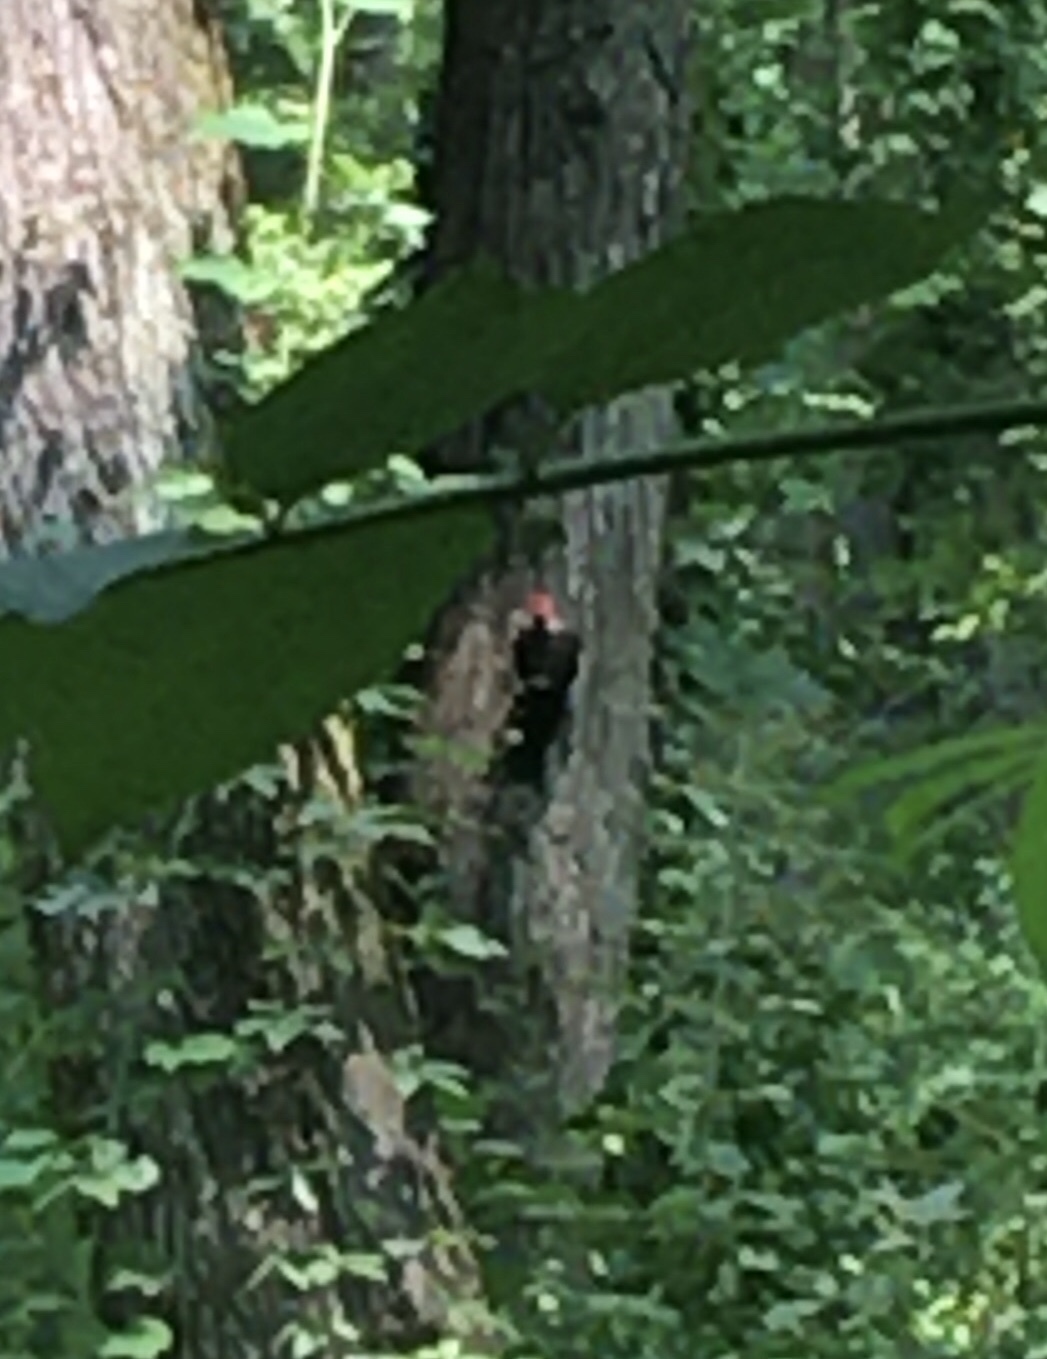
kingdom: Animalia
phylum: Chordata
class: Aves
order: Piciformes
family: Picidae
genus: Dryocopus
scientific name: Dryocopus pileatus
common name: Pileated woodpecker
